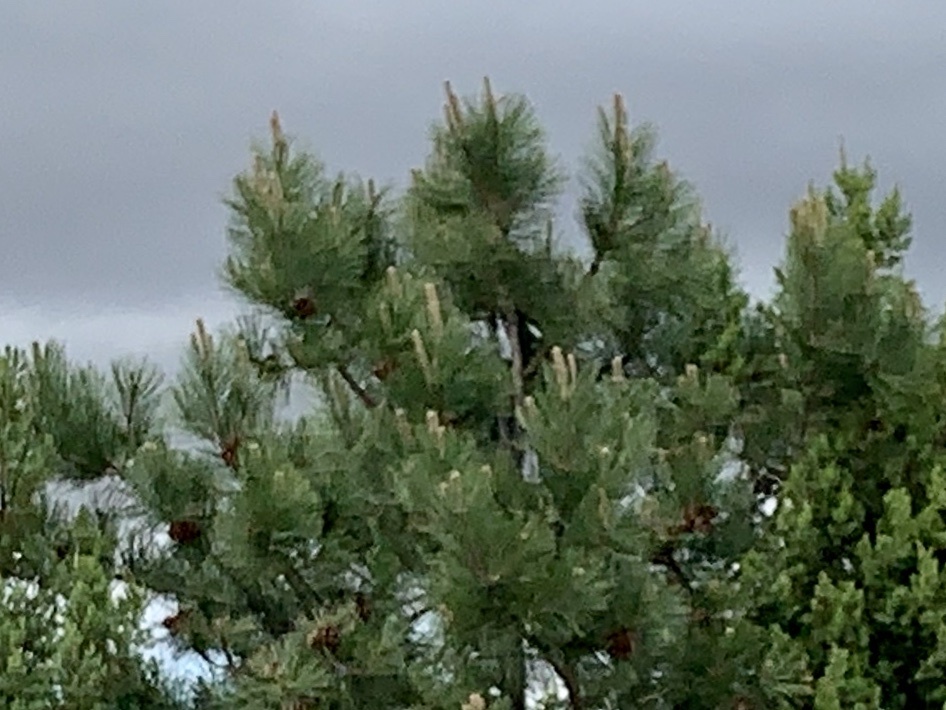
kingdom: Plantae
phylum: Tracheophyta
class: Pinopsida
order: Pinales
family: Pinaceae
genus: Pinus
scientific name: Pinus ponderosa
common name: Western yellow-pine
